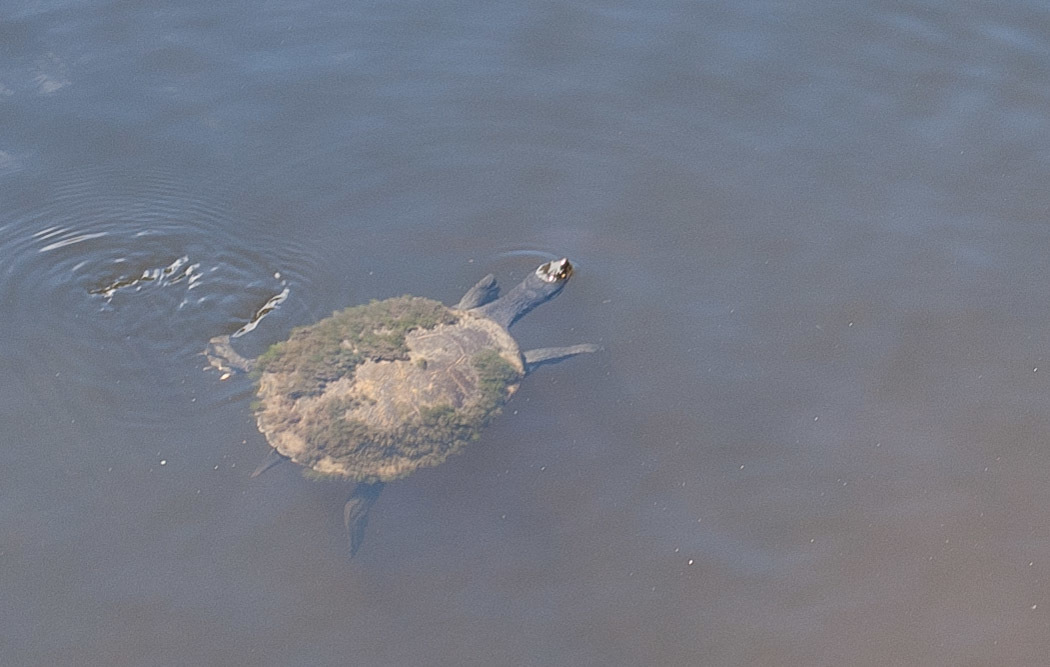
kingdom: Animalia
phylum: Chordata
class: Testudines
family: Chelidae
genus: Emydura
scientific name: Emydura macquarii
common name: Murray river turtle
